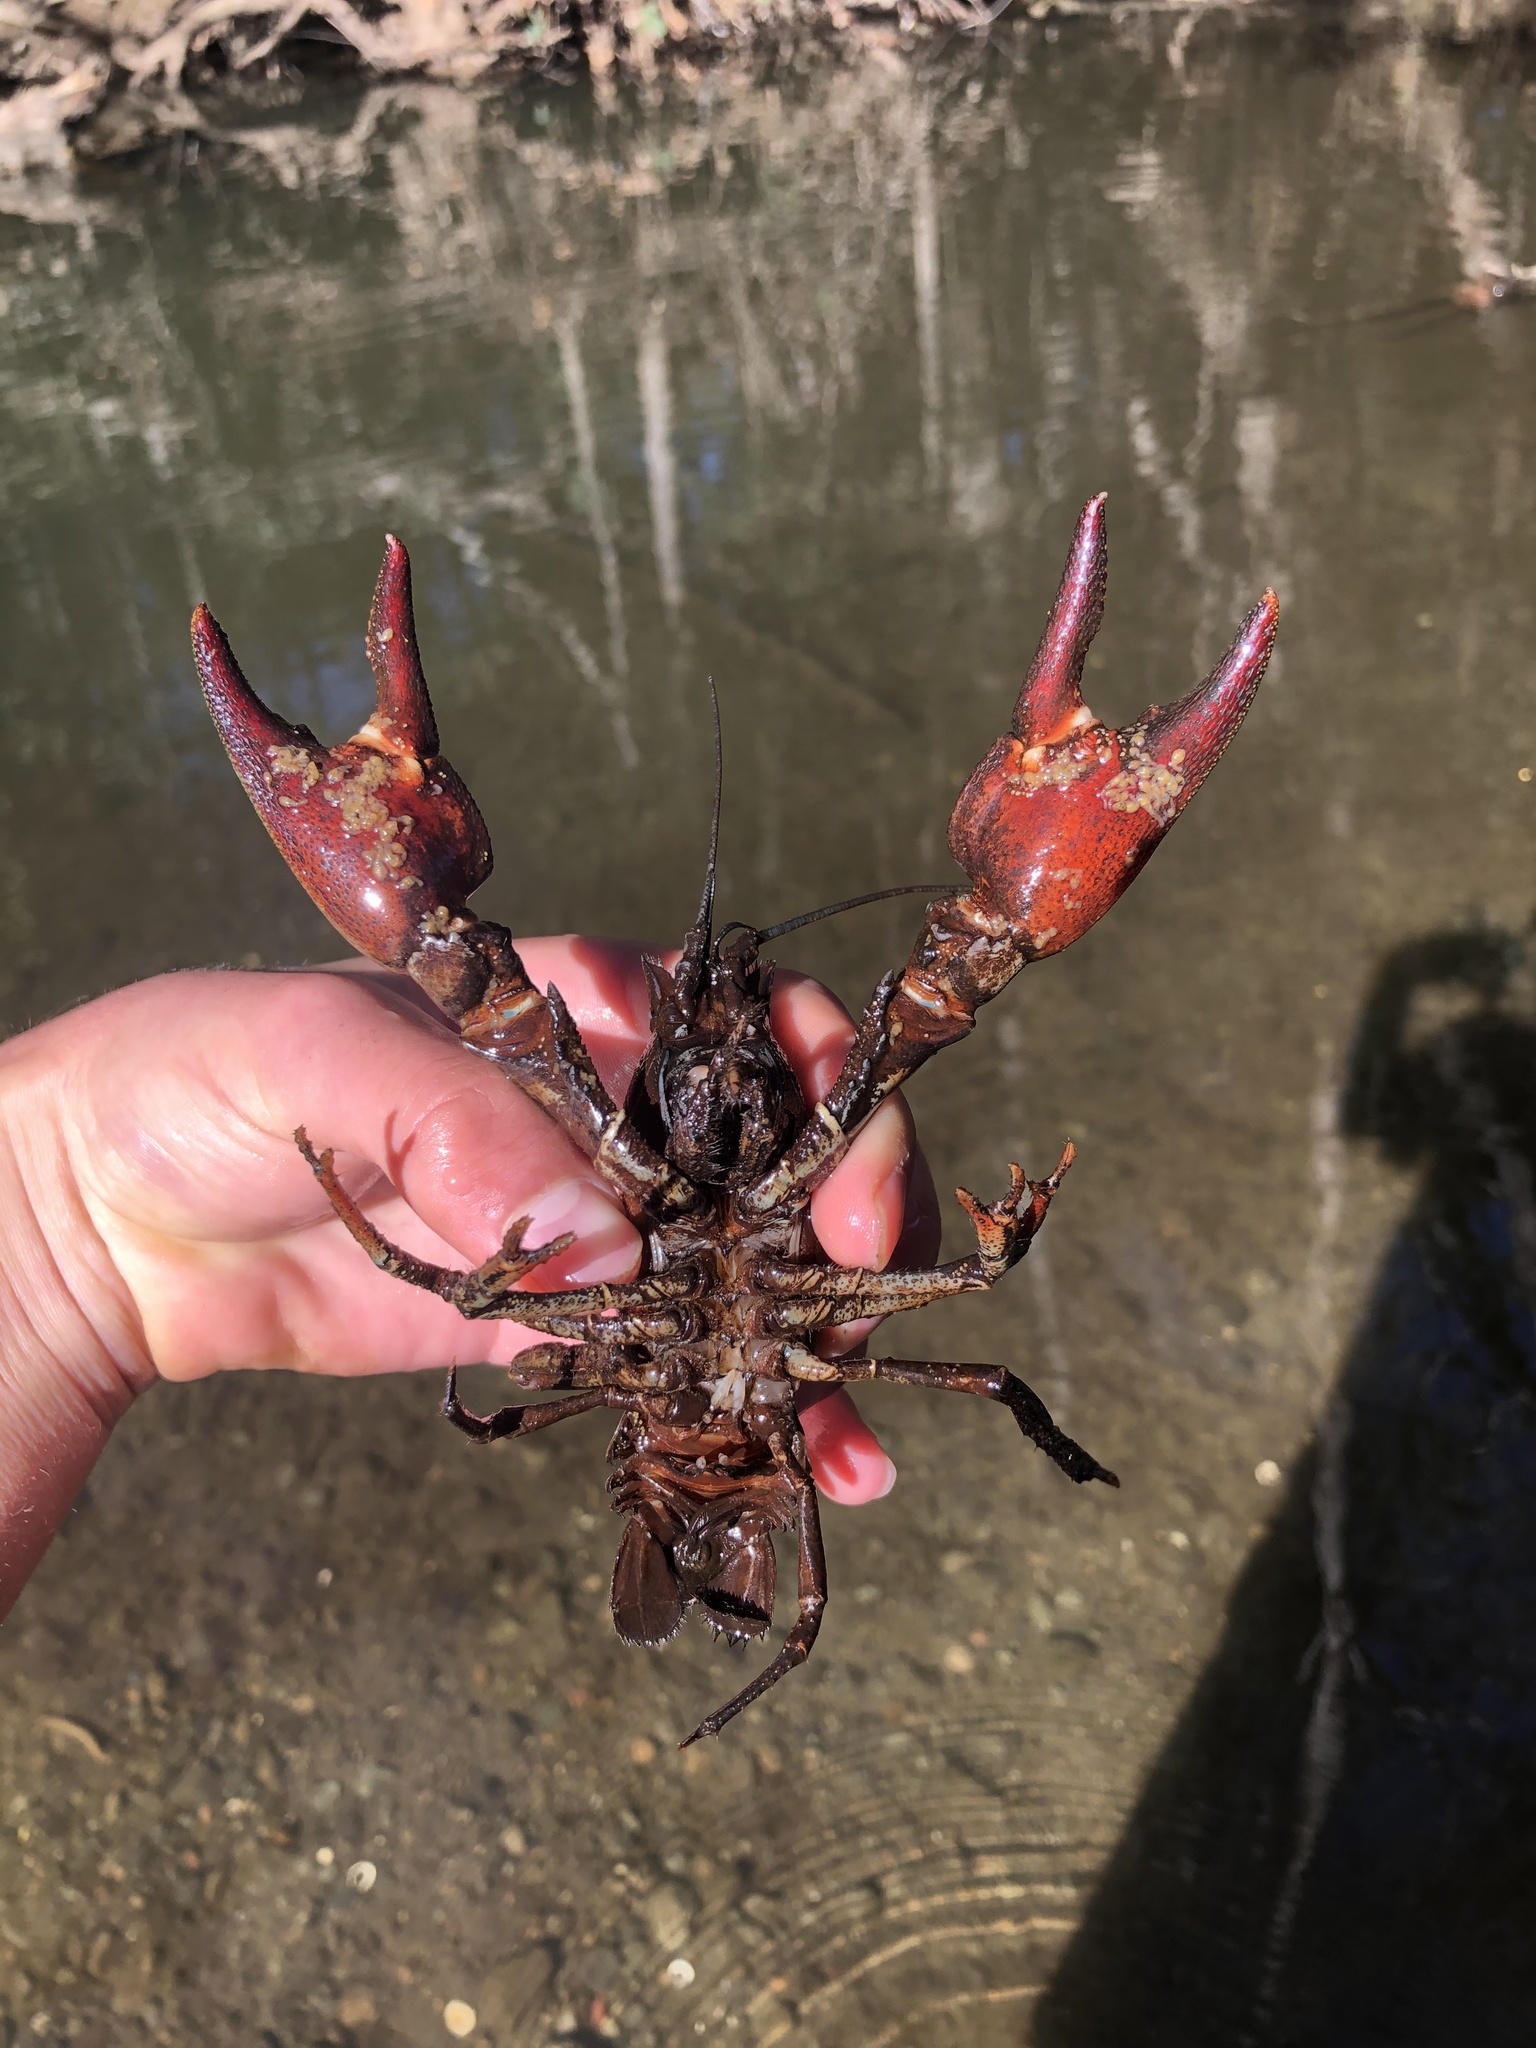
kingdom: Animalia
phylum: Arthropoda
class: Malacostraca
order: Decapoda
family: Astacidae
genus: Pacifastacus
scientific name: Pacifastacus leniusculus
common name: Signal crayfish
